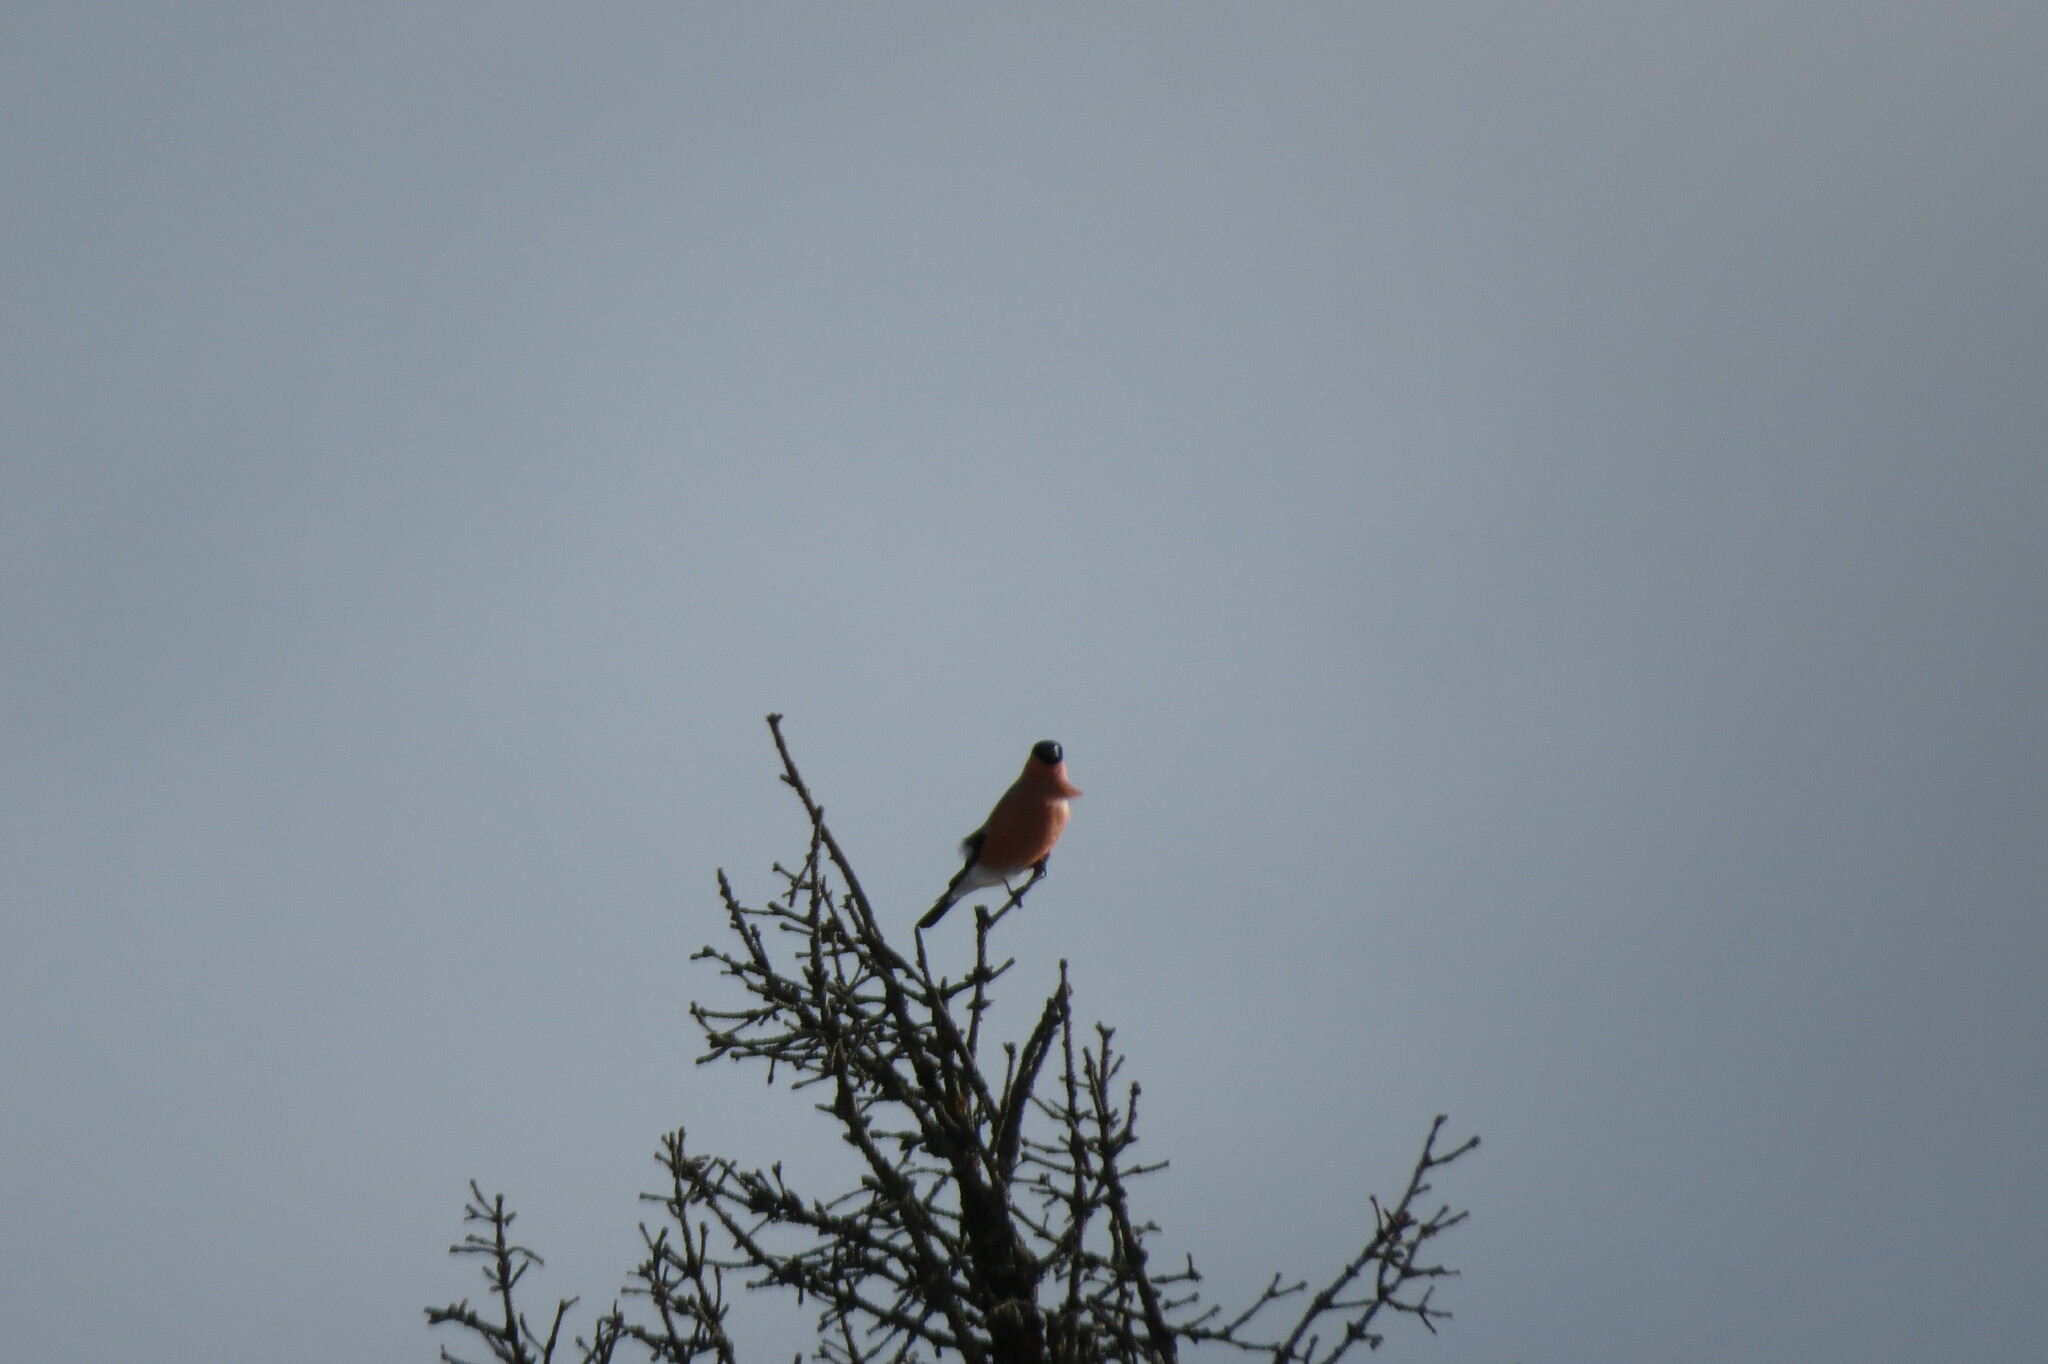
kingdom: Animalia
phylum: Chordata
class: Aves
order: Passeriformes
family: Fringillidae
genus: Pyrrhula
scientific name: Pyrrhula pyrrhula
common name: Eurasian bullfinch
